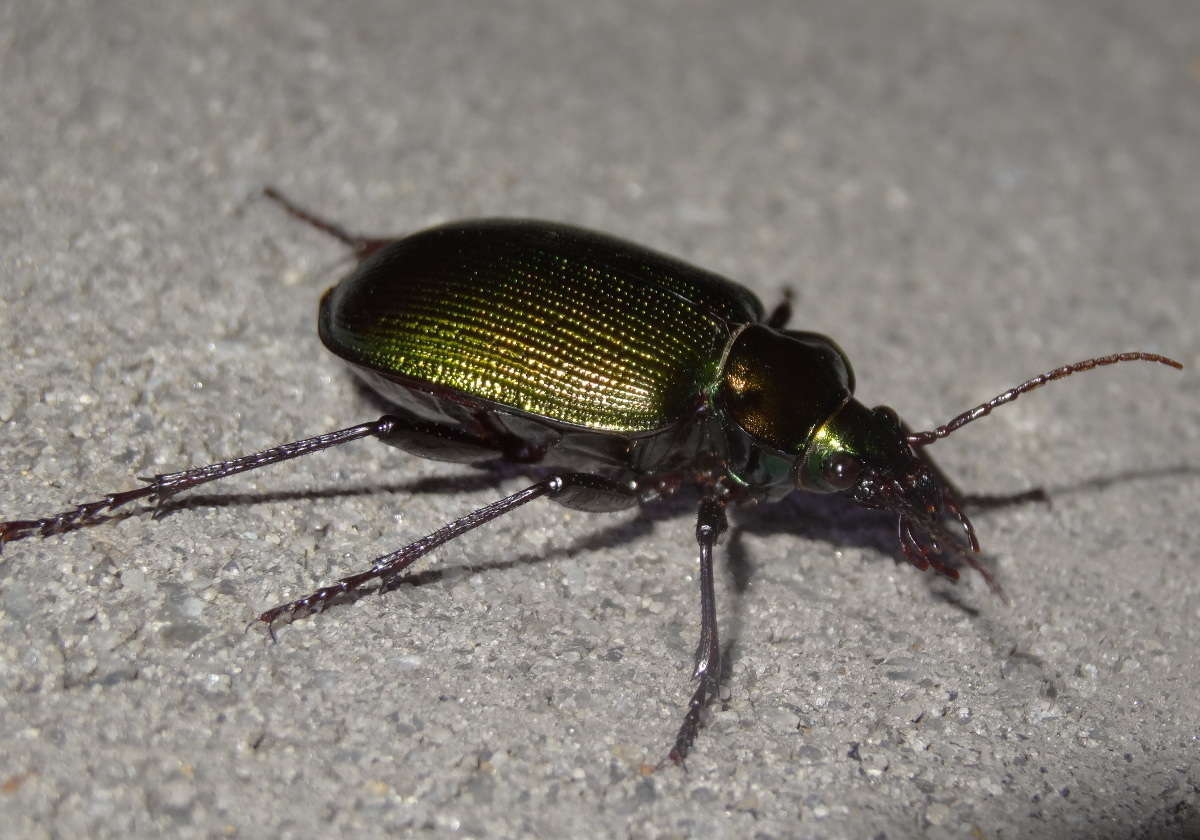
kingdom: Animalia
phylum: Arthropoda
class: Insecta
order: Coleoptera
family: Carabidae
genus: Calosoma
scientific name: Calosoma schayeri
